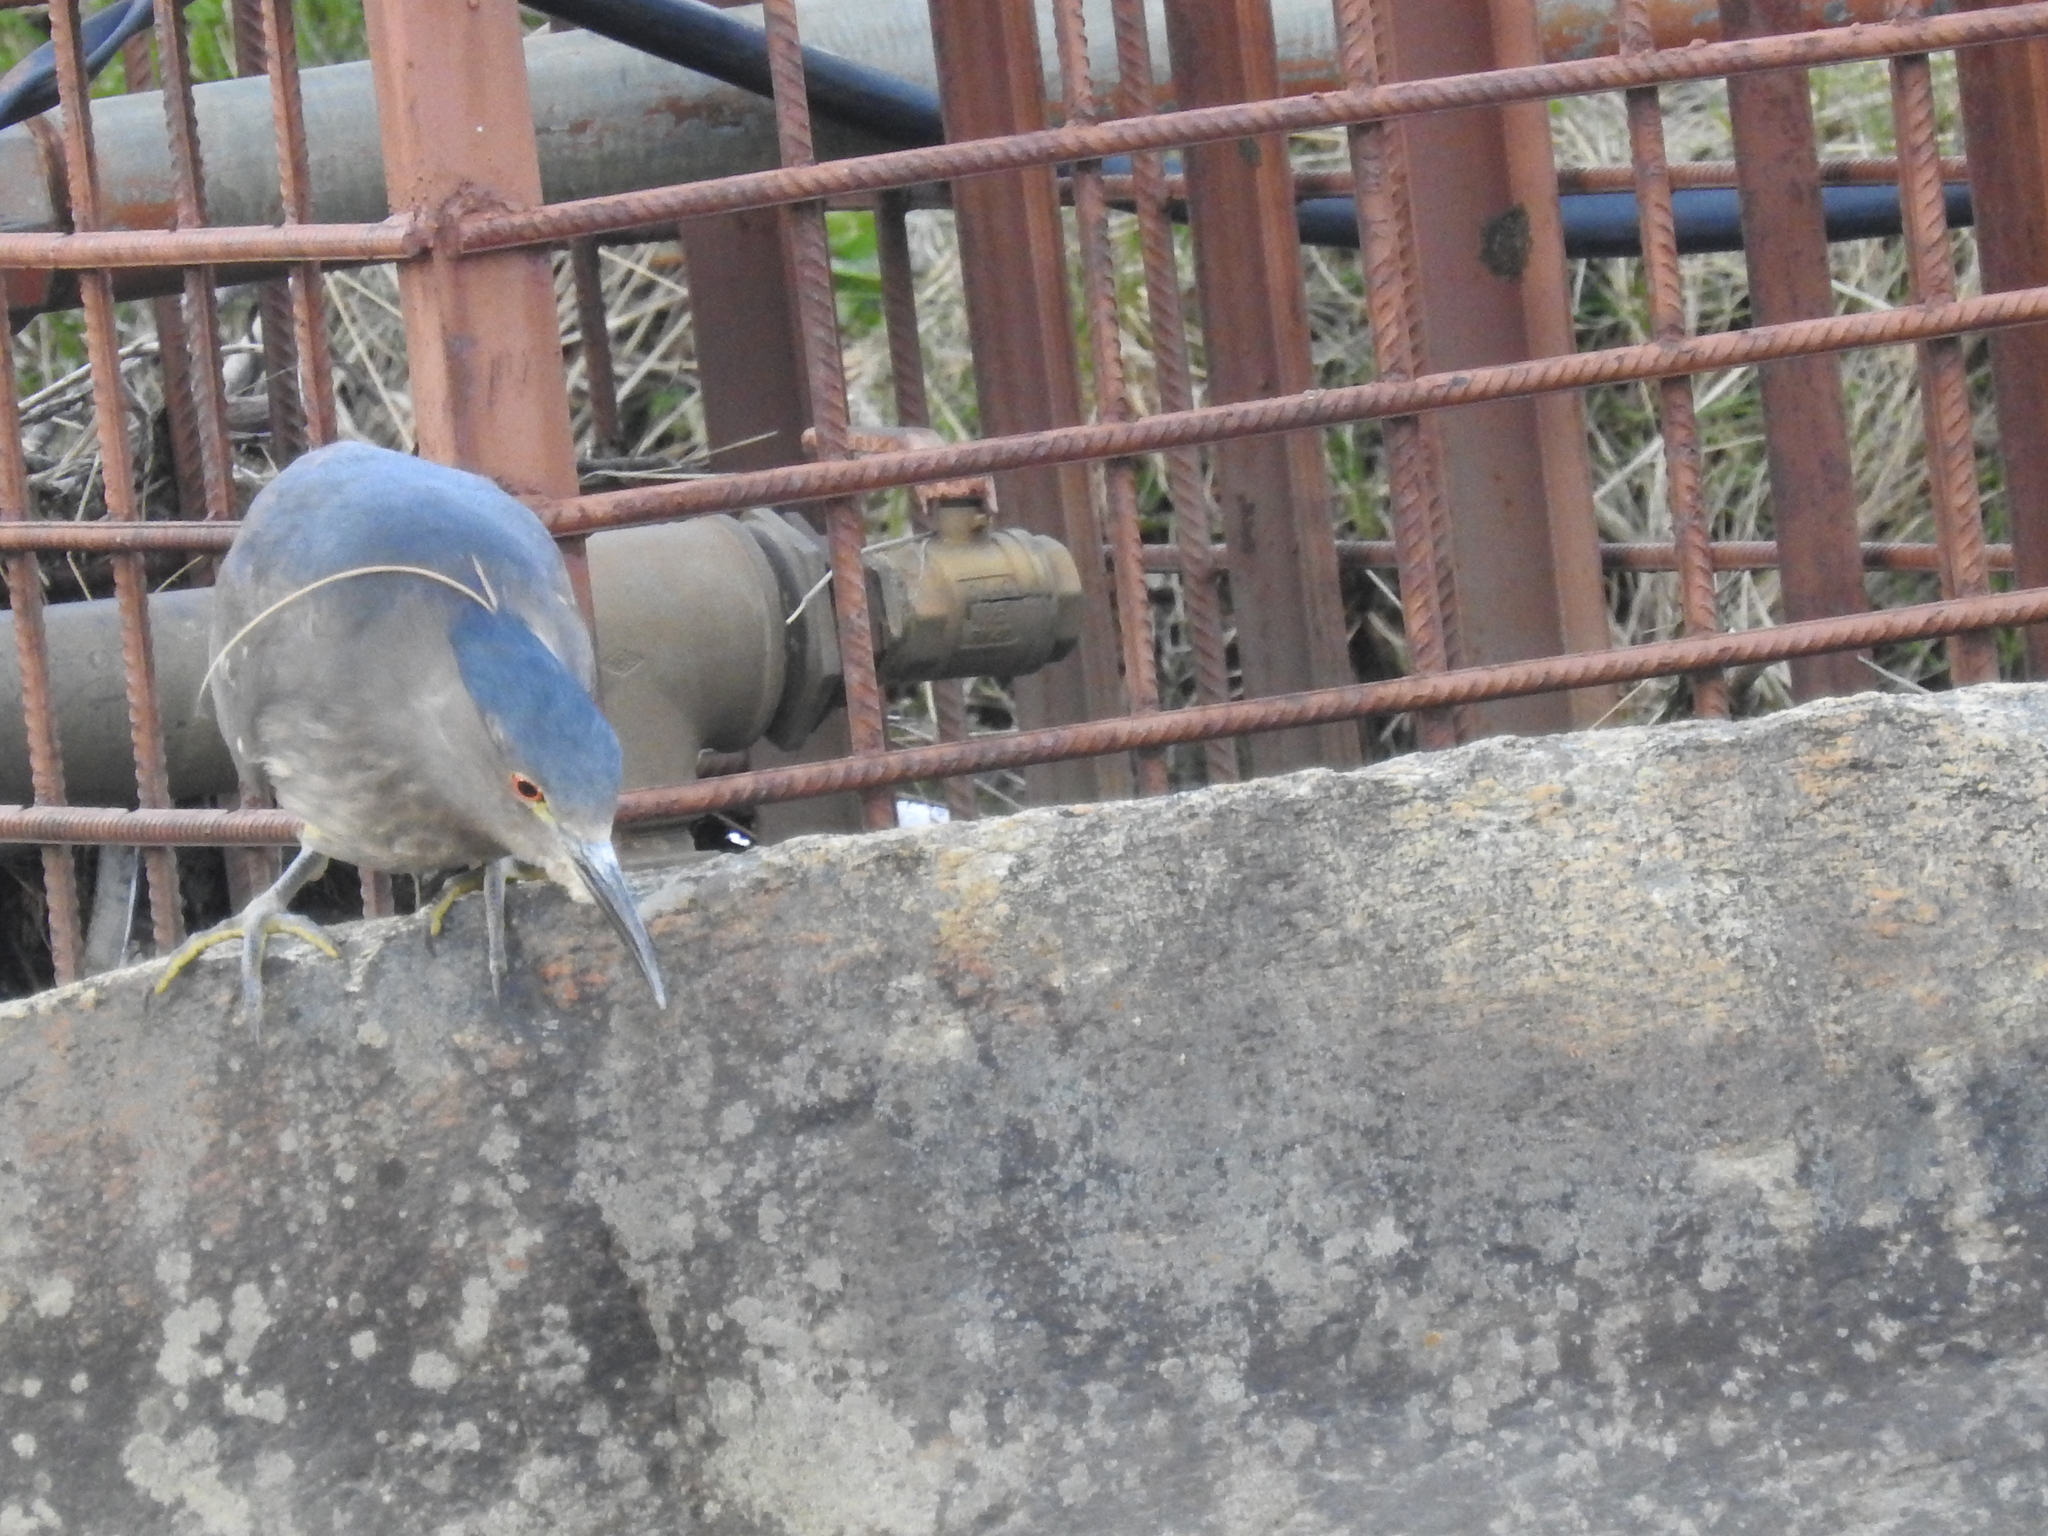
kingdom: Animalia
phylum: Chordata
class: Aves
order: Pelecaniformes
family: Ardeidae
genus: Nycticorax
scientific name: Nycticorax nycticorax
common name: Black-crowned night heron
